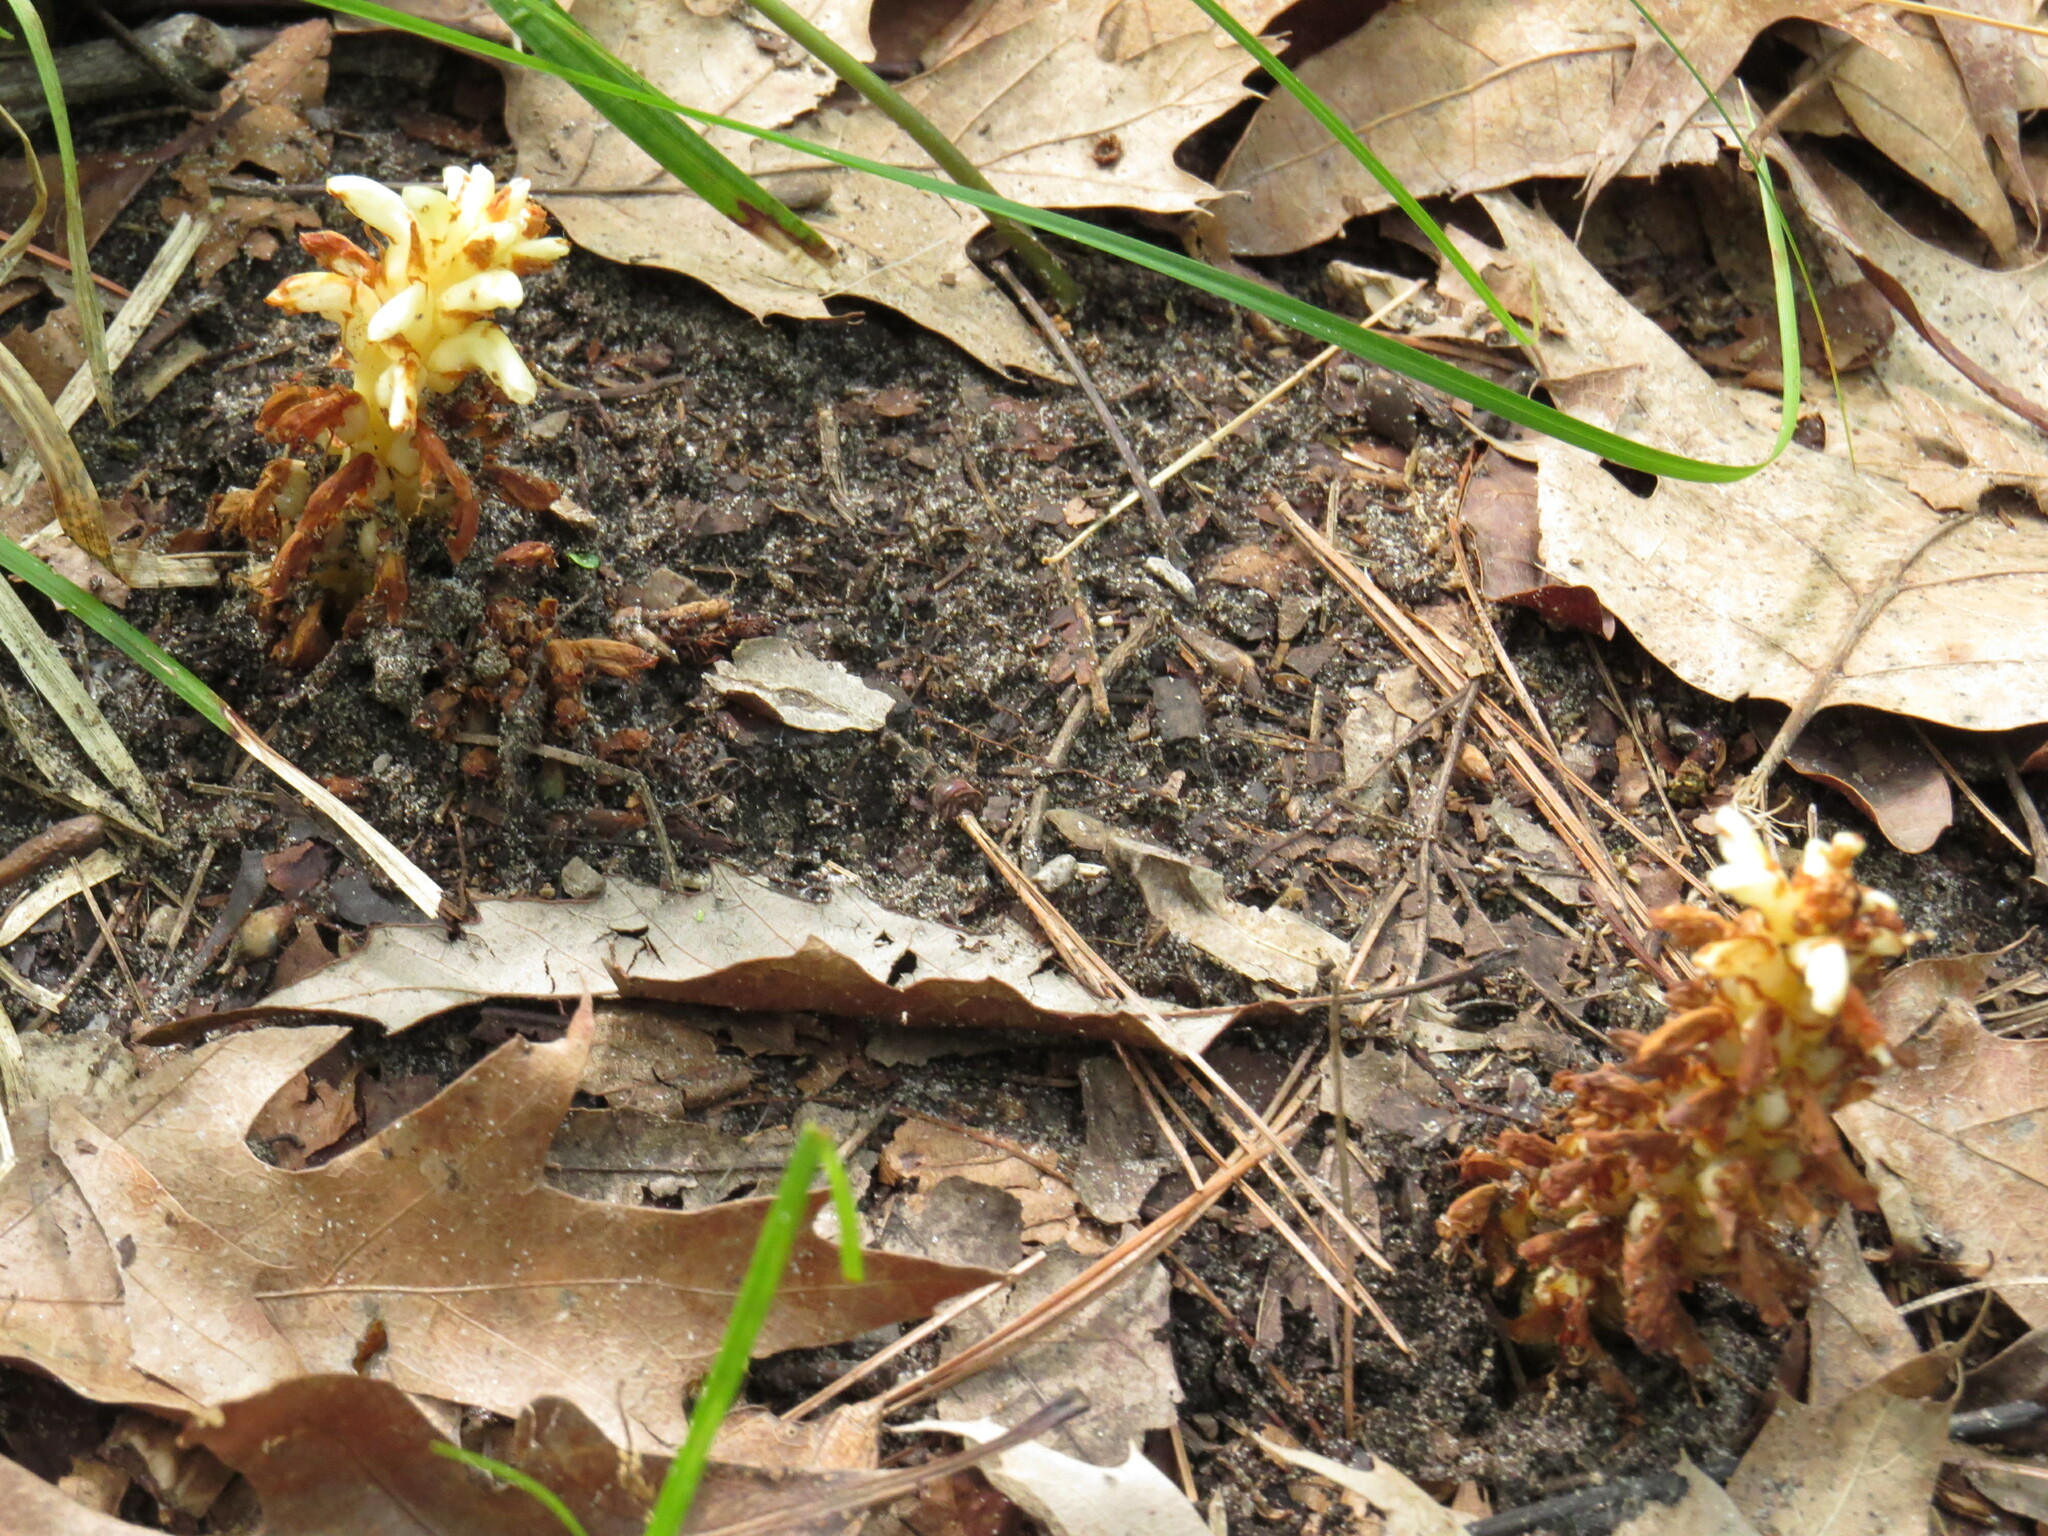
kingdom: Plantae
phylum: Tracheophyta
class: Magnoliopsida
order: Lamiales
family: Orobanchaceae
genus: Conopholis
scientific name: Conopholis americana
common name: American cancer-root
